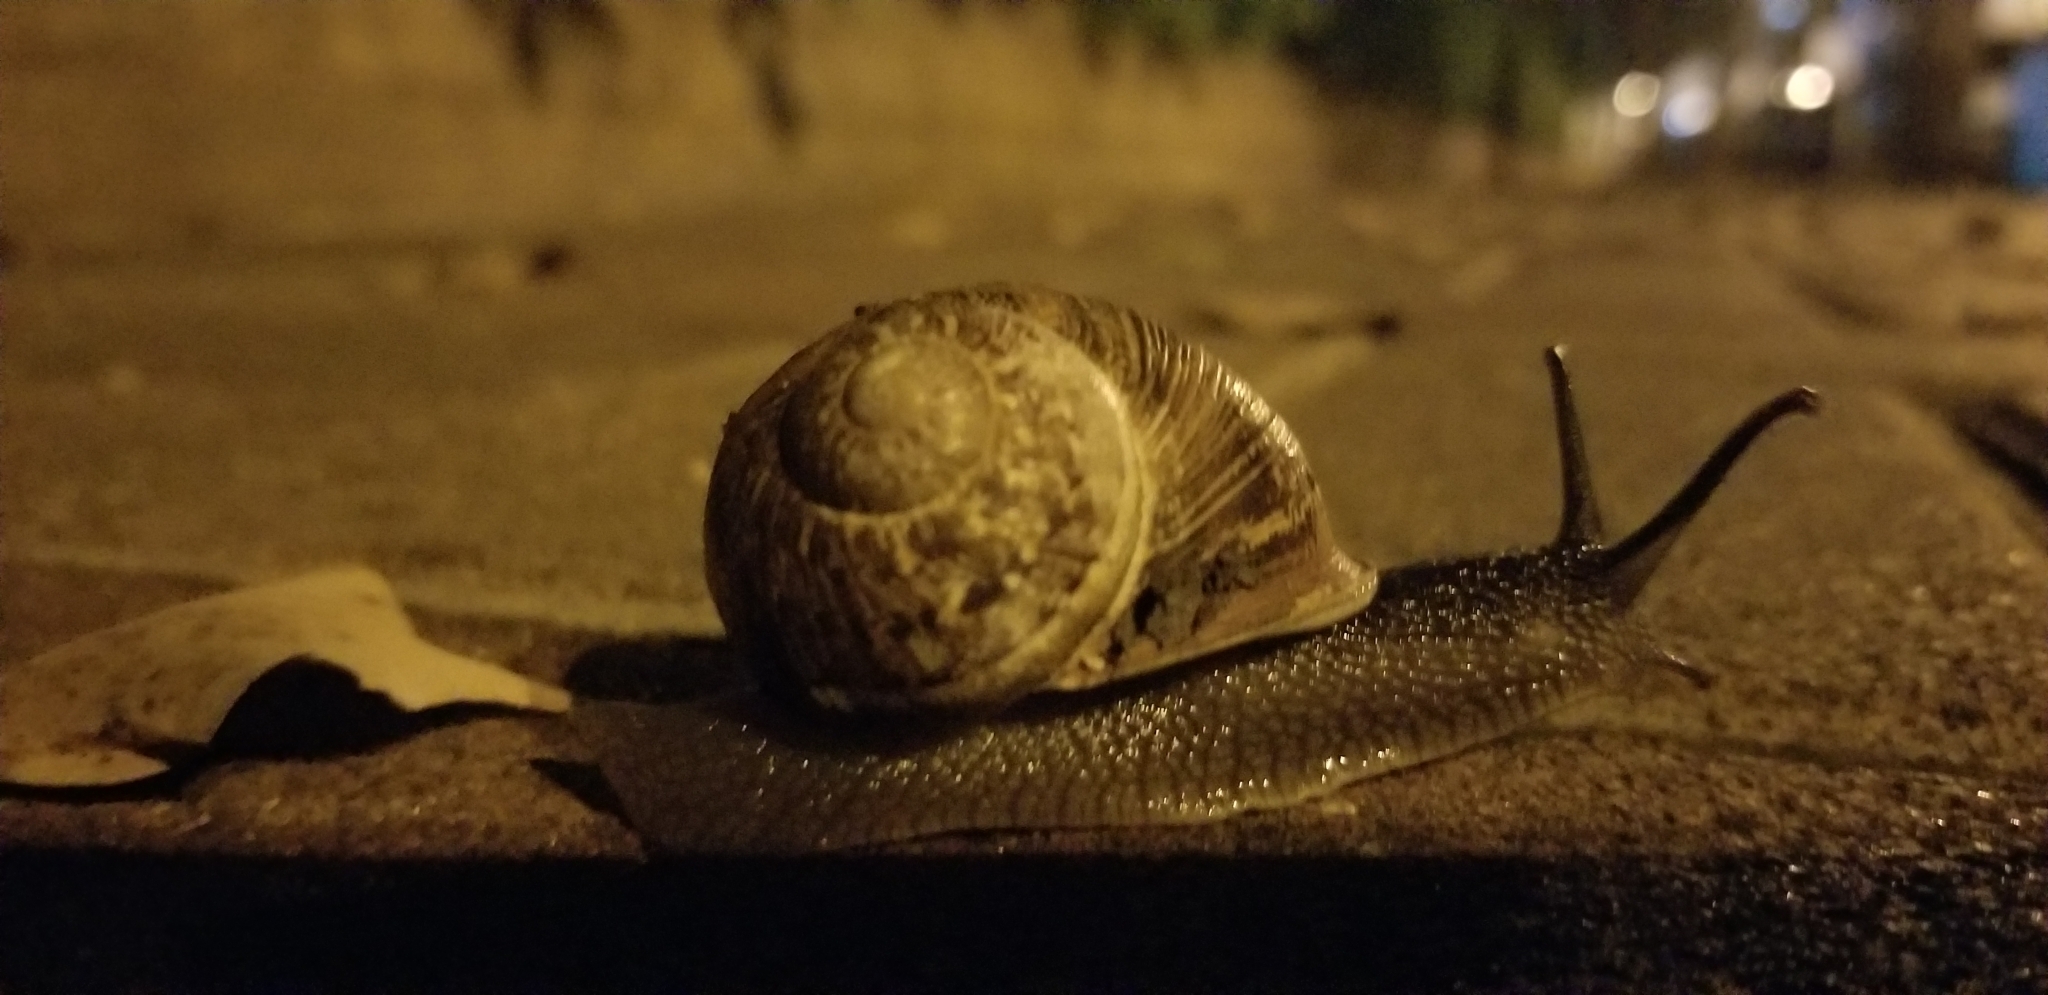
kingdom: Animalia
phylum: Mollusca
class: Gastropoda
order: Stylommatophora
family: Helicidae
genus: Cornu
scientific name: Cornu aspersum
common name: Brown garden snail
